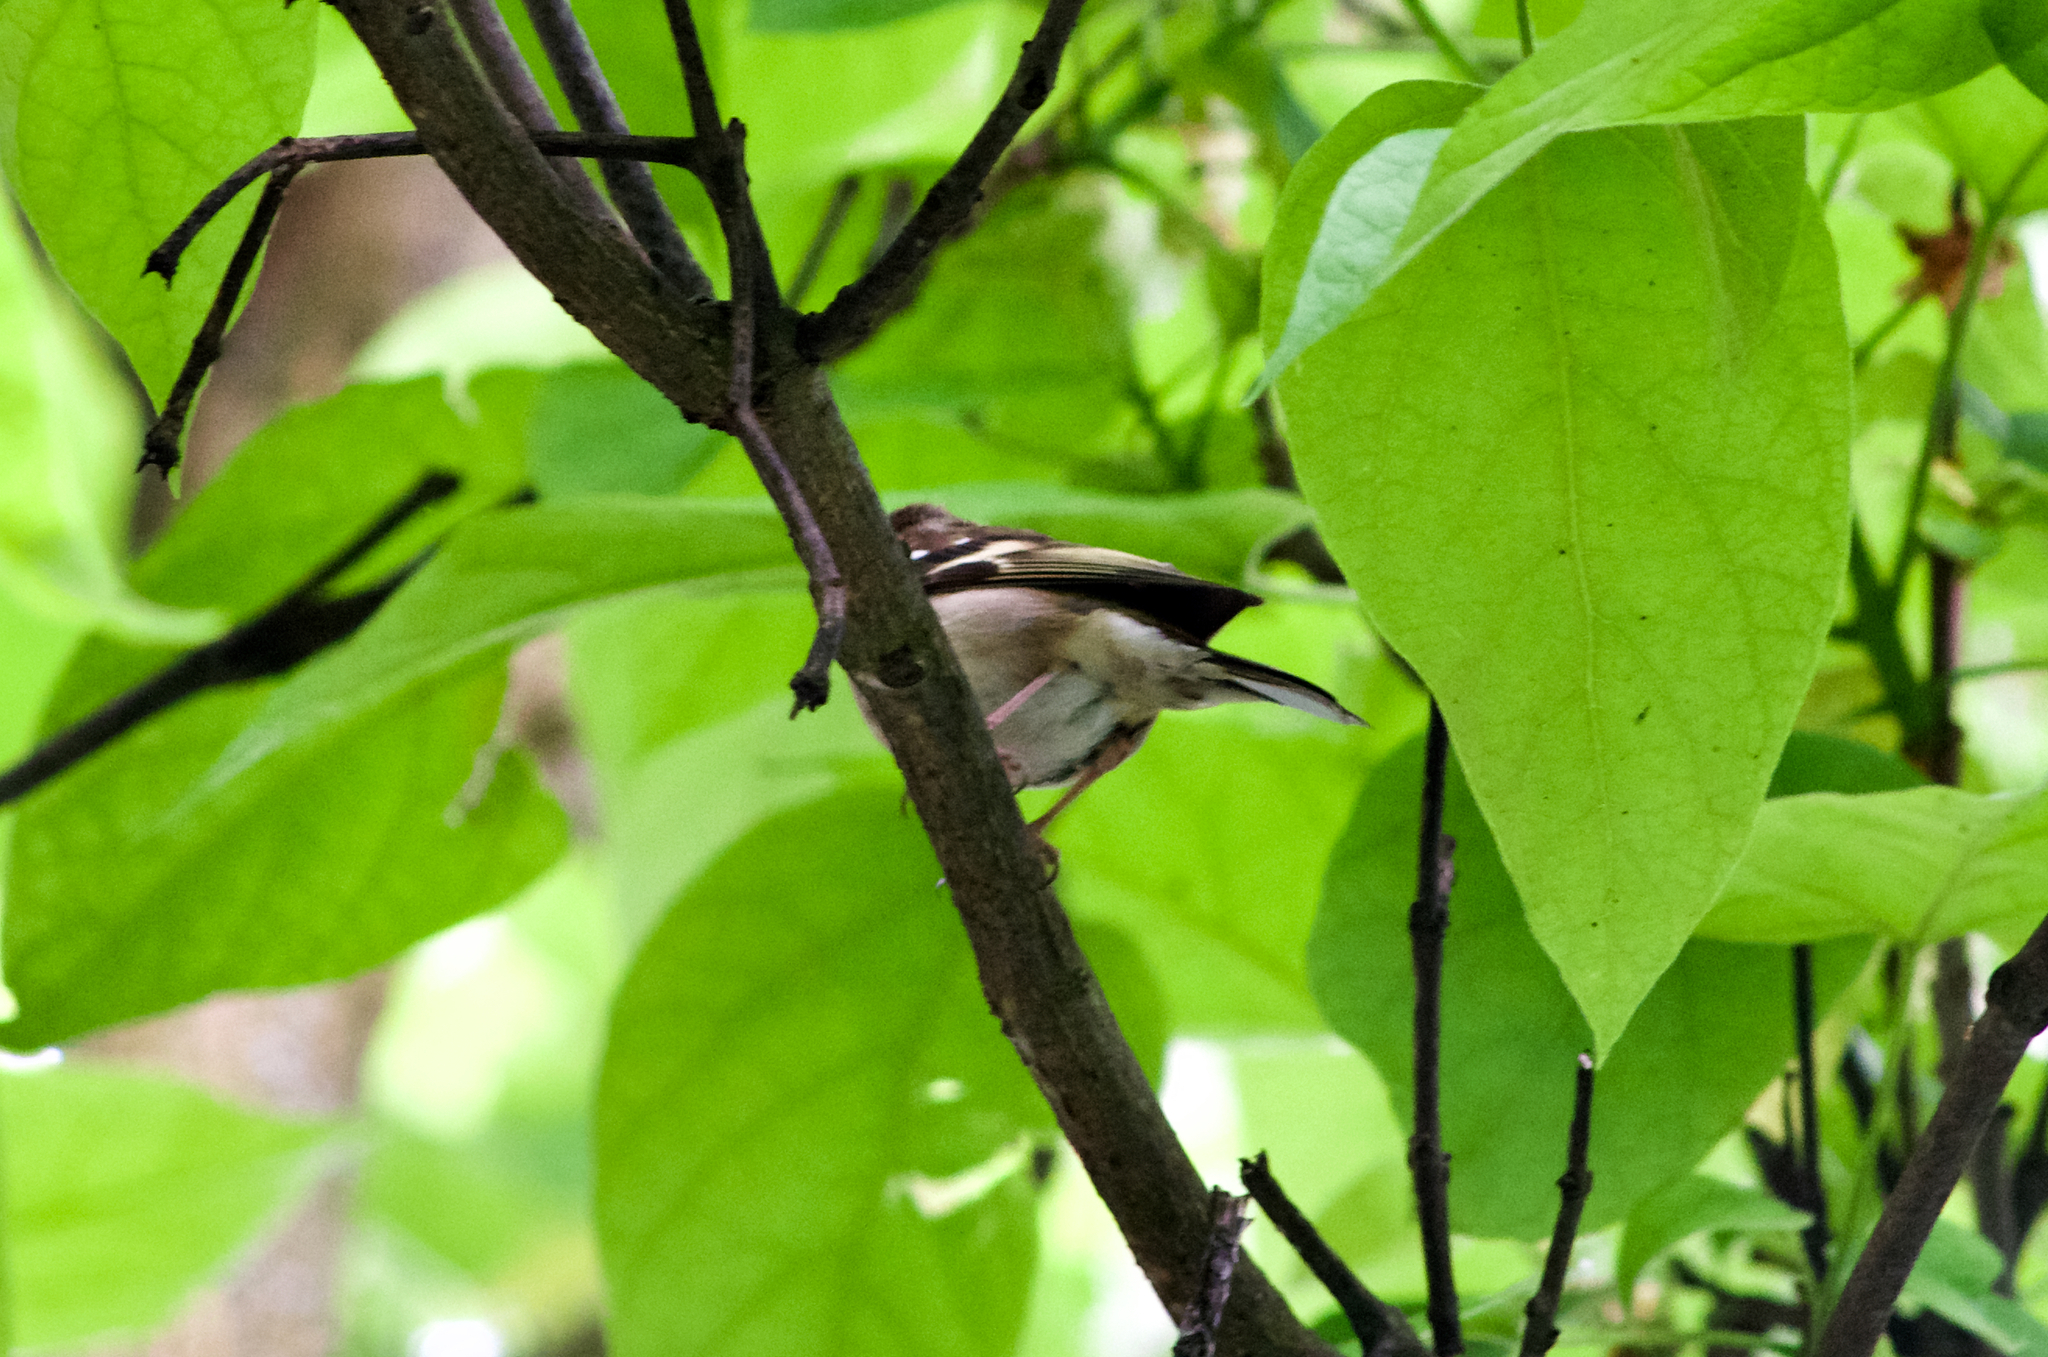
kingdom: Animalia
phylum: Chordata
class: Aves
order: Passeriformes
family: Fringillidae
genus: Fringilla
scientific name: Fringilla coelebs
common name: Common chaffinch
